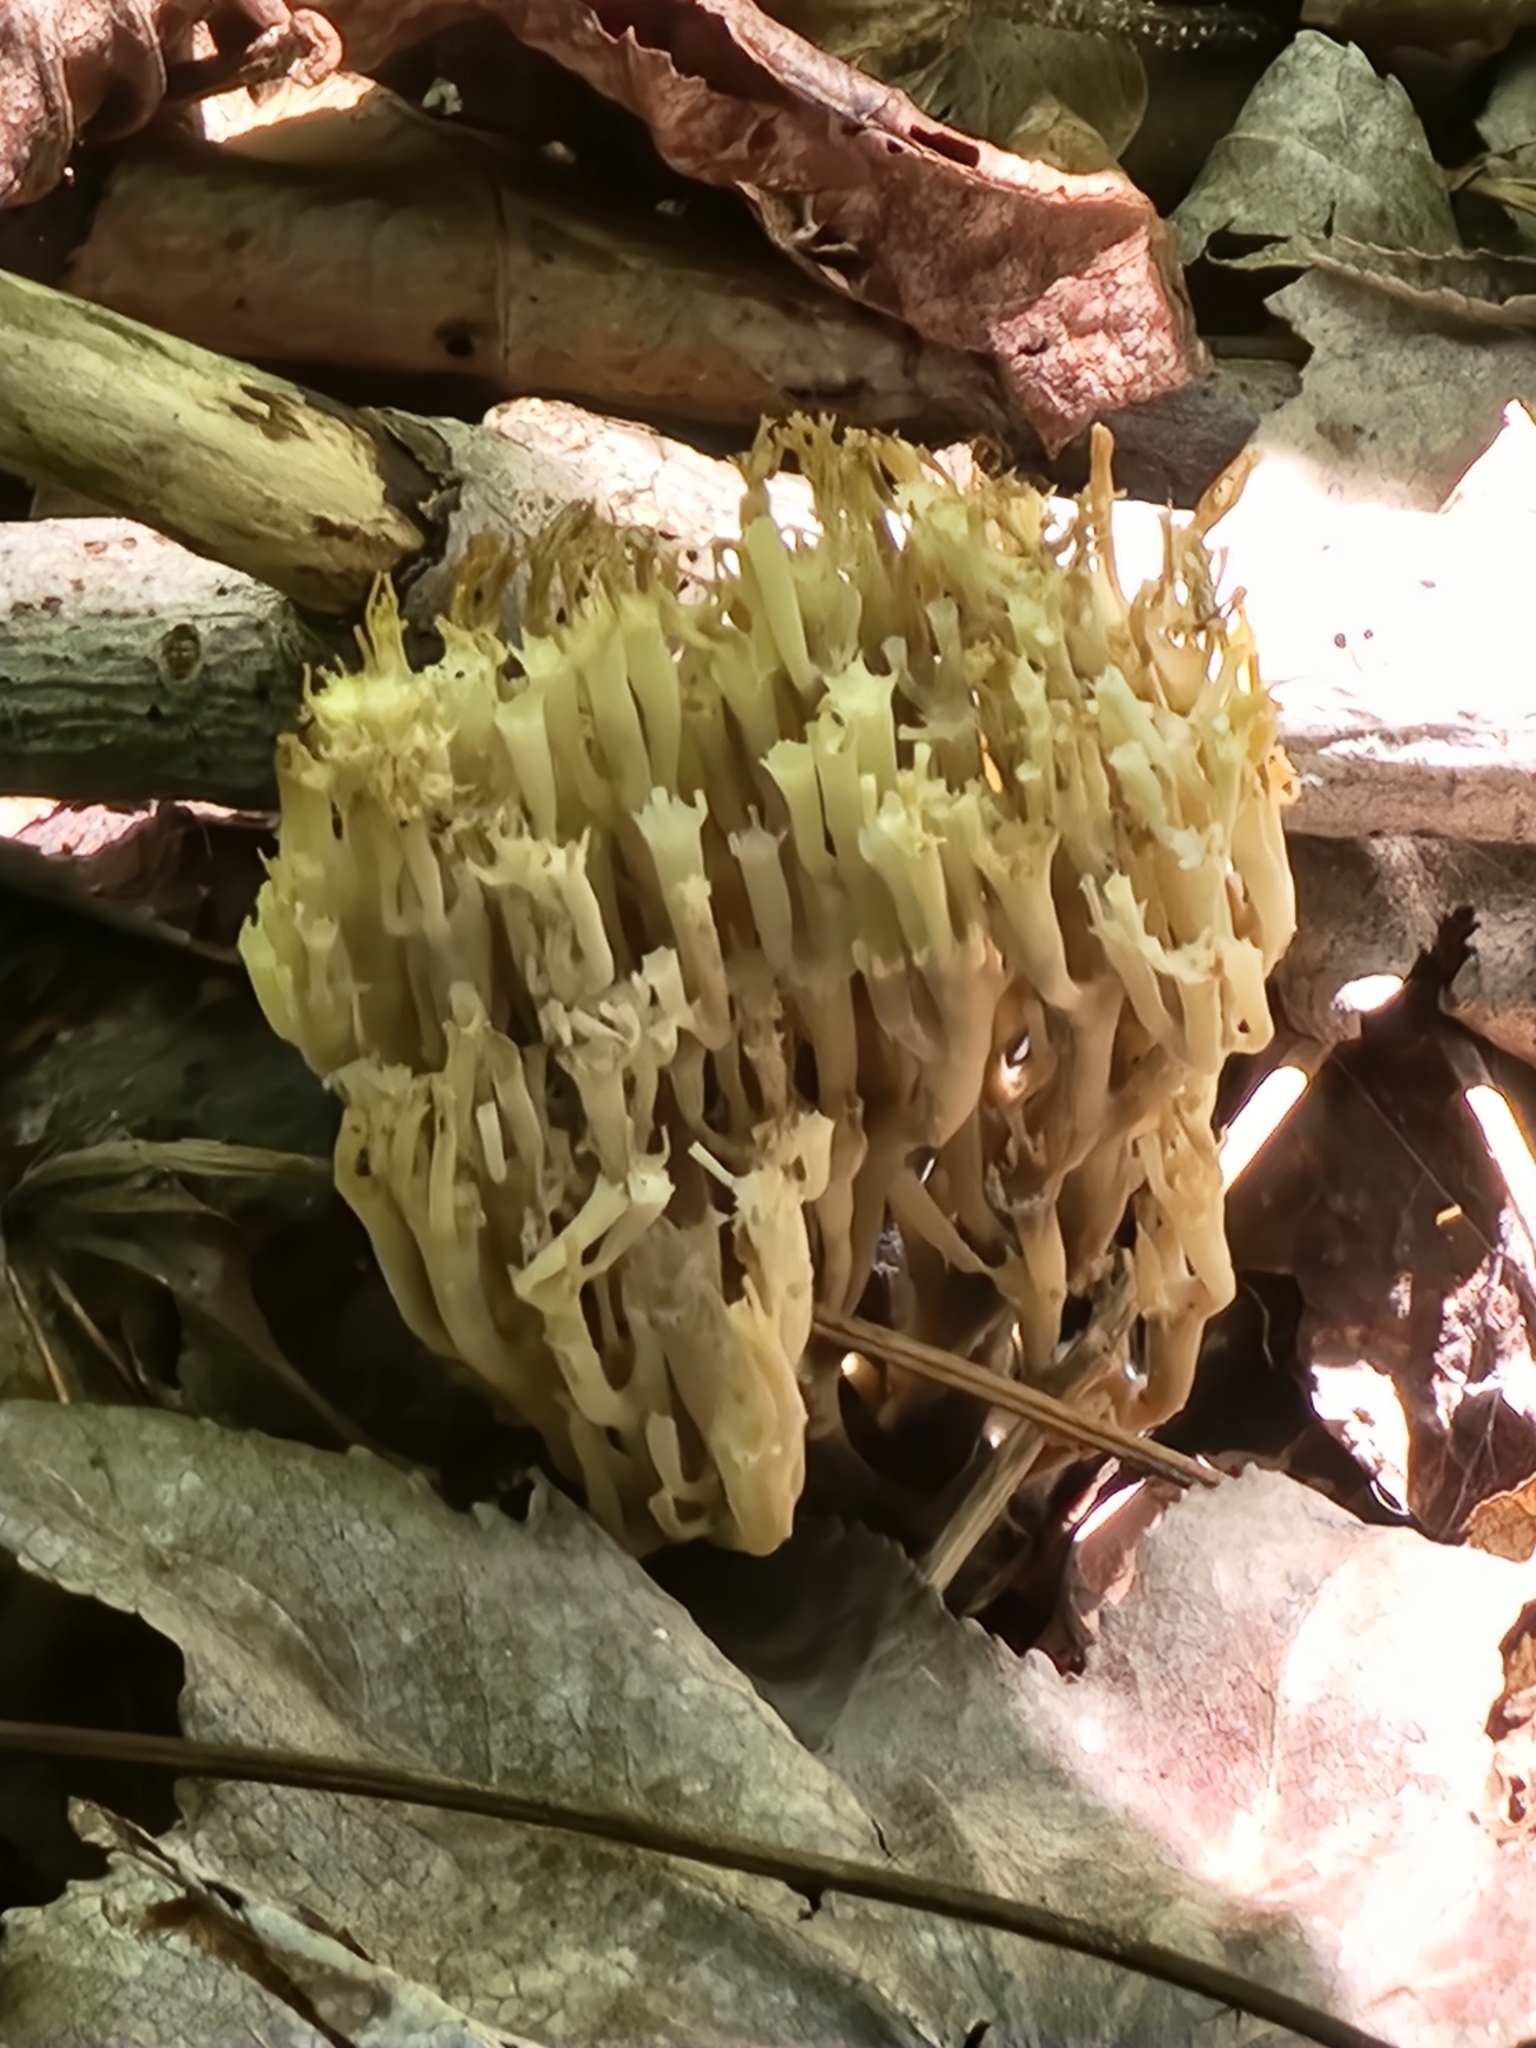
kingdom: Fungi
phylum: Basidiomycota
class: Agaricomycetes
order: Russulales
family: Auriscalpiaceae
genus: Artomyces
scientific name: Artomyces pyxidatus
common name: Crown-tipped coral fungus
